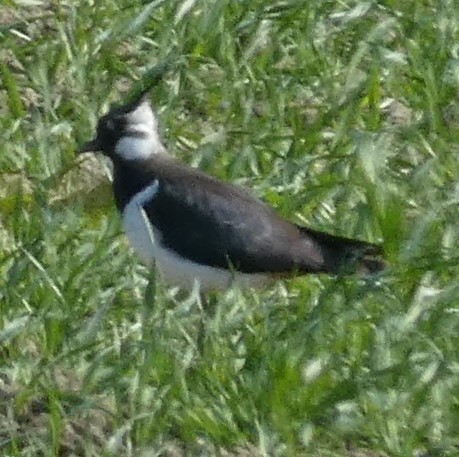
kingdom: Animalia
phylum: Chordata
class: Aves
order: Charadriiformes
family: Charadriidae
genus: Vanellus
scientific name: Vanellus vanellus
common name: Northern lapwing
